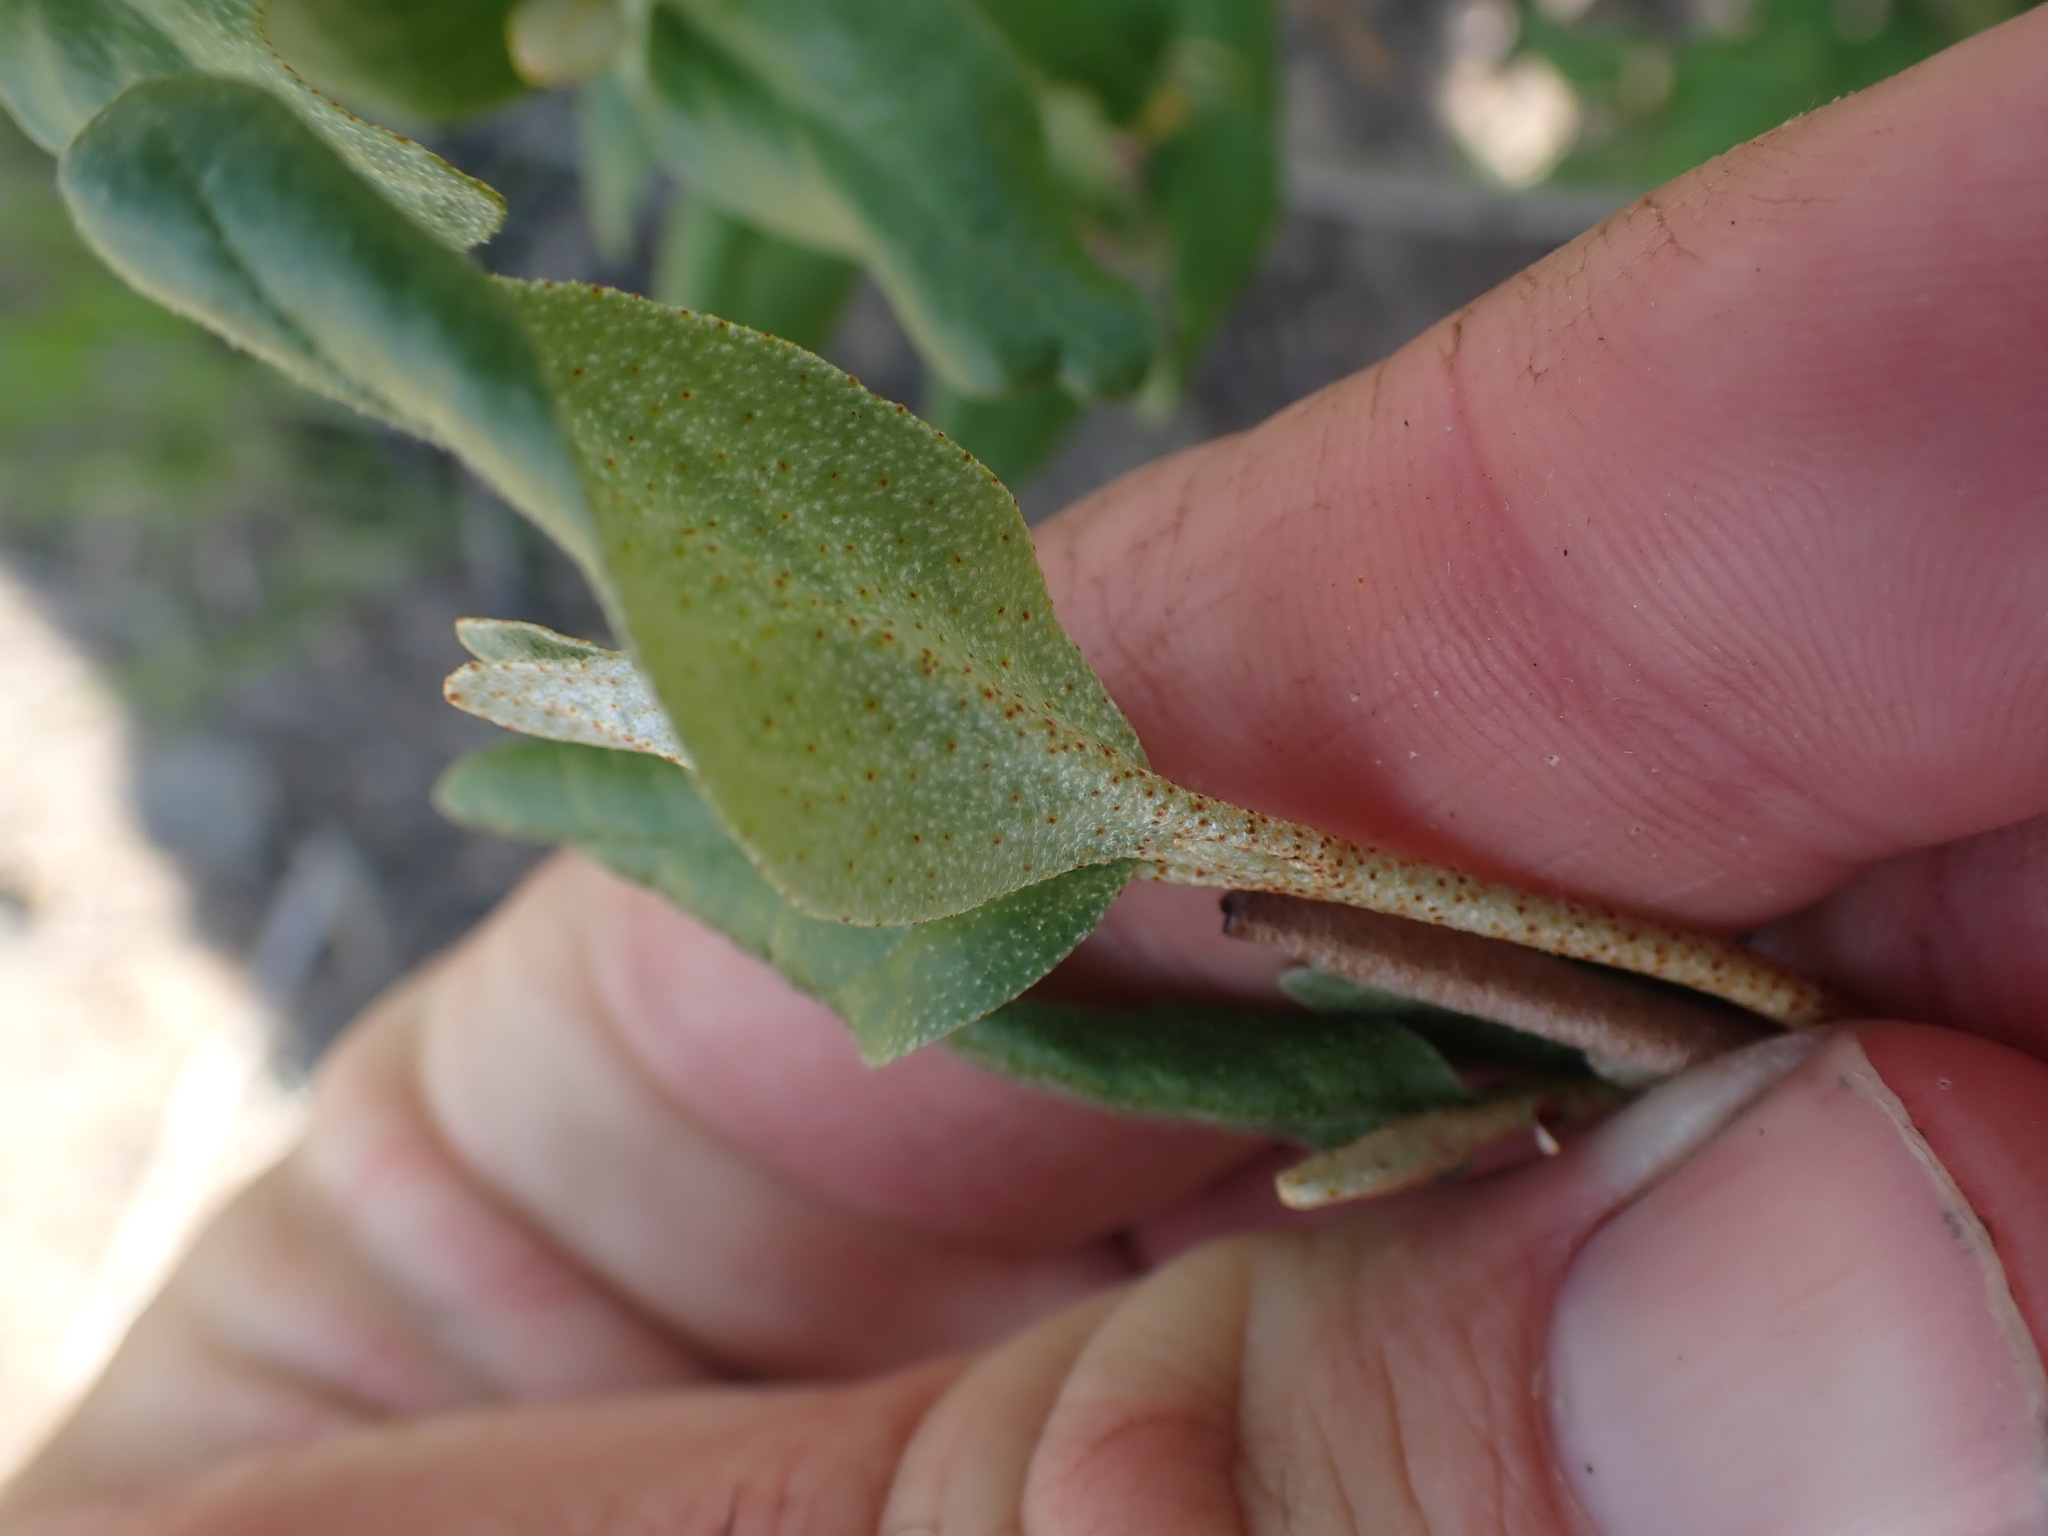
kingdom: Plantae
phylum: Tracheophyta
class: Magnoliopsida
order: Rosales
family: Elaeagnaceae
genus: Shepherdia
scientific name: Shepherdia canadensis
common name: Soapberry
